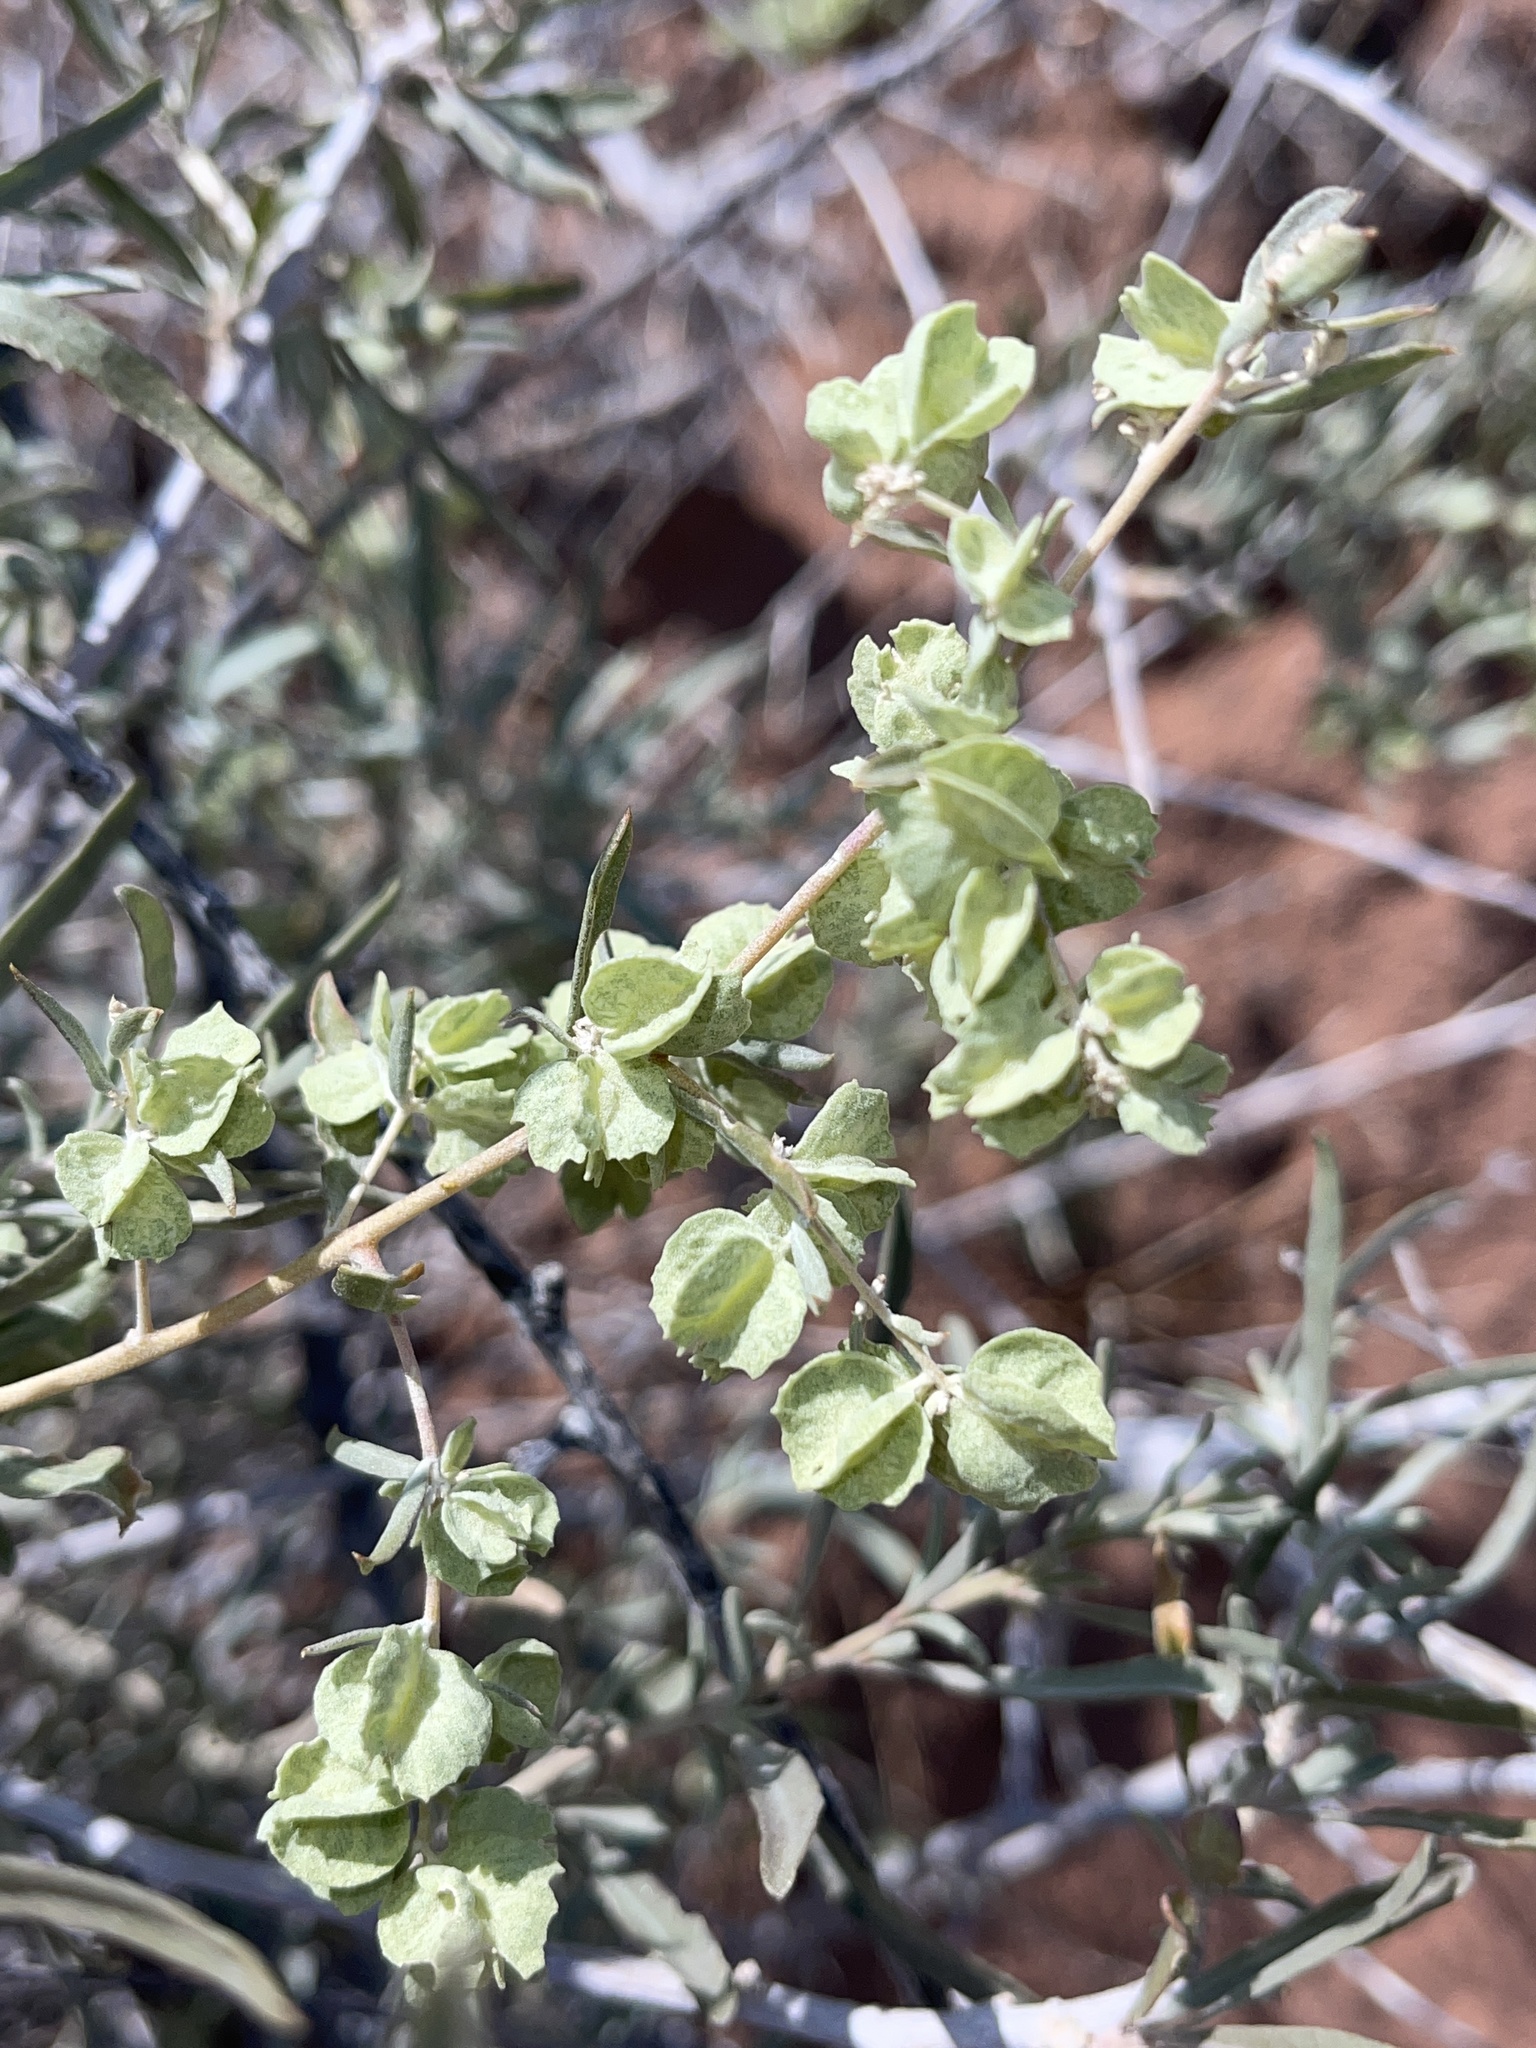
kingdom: Plantae
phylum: Tracheophyta
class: Magnoliopsida
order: Caryophyllales
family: Amaranthaceae
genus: Atriplex
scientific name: Atriplex canescens
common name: Four-wing saltbush
